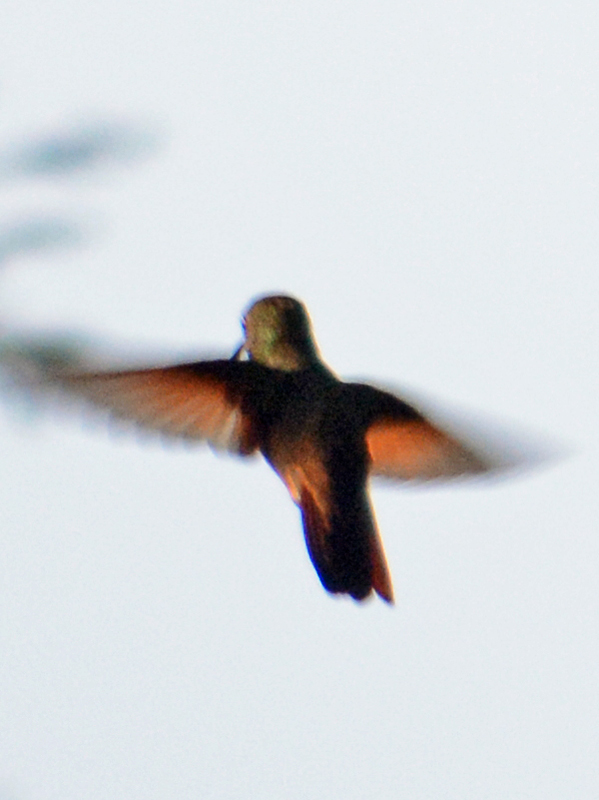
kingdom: Animalia
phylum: Chordata
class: Aves
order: Apodiformes
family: Trochilidae
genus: Saucerottia
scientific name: Saucerottia beryllina
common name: Berylline hummingbird
